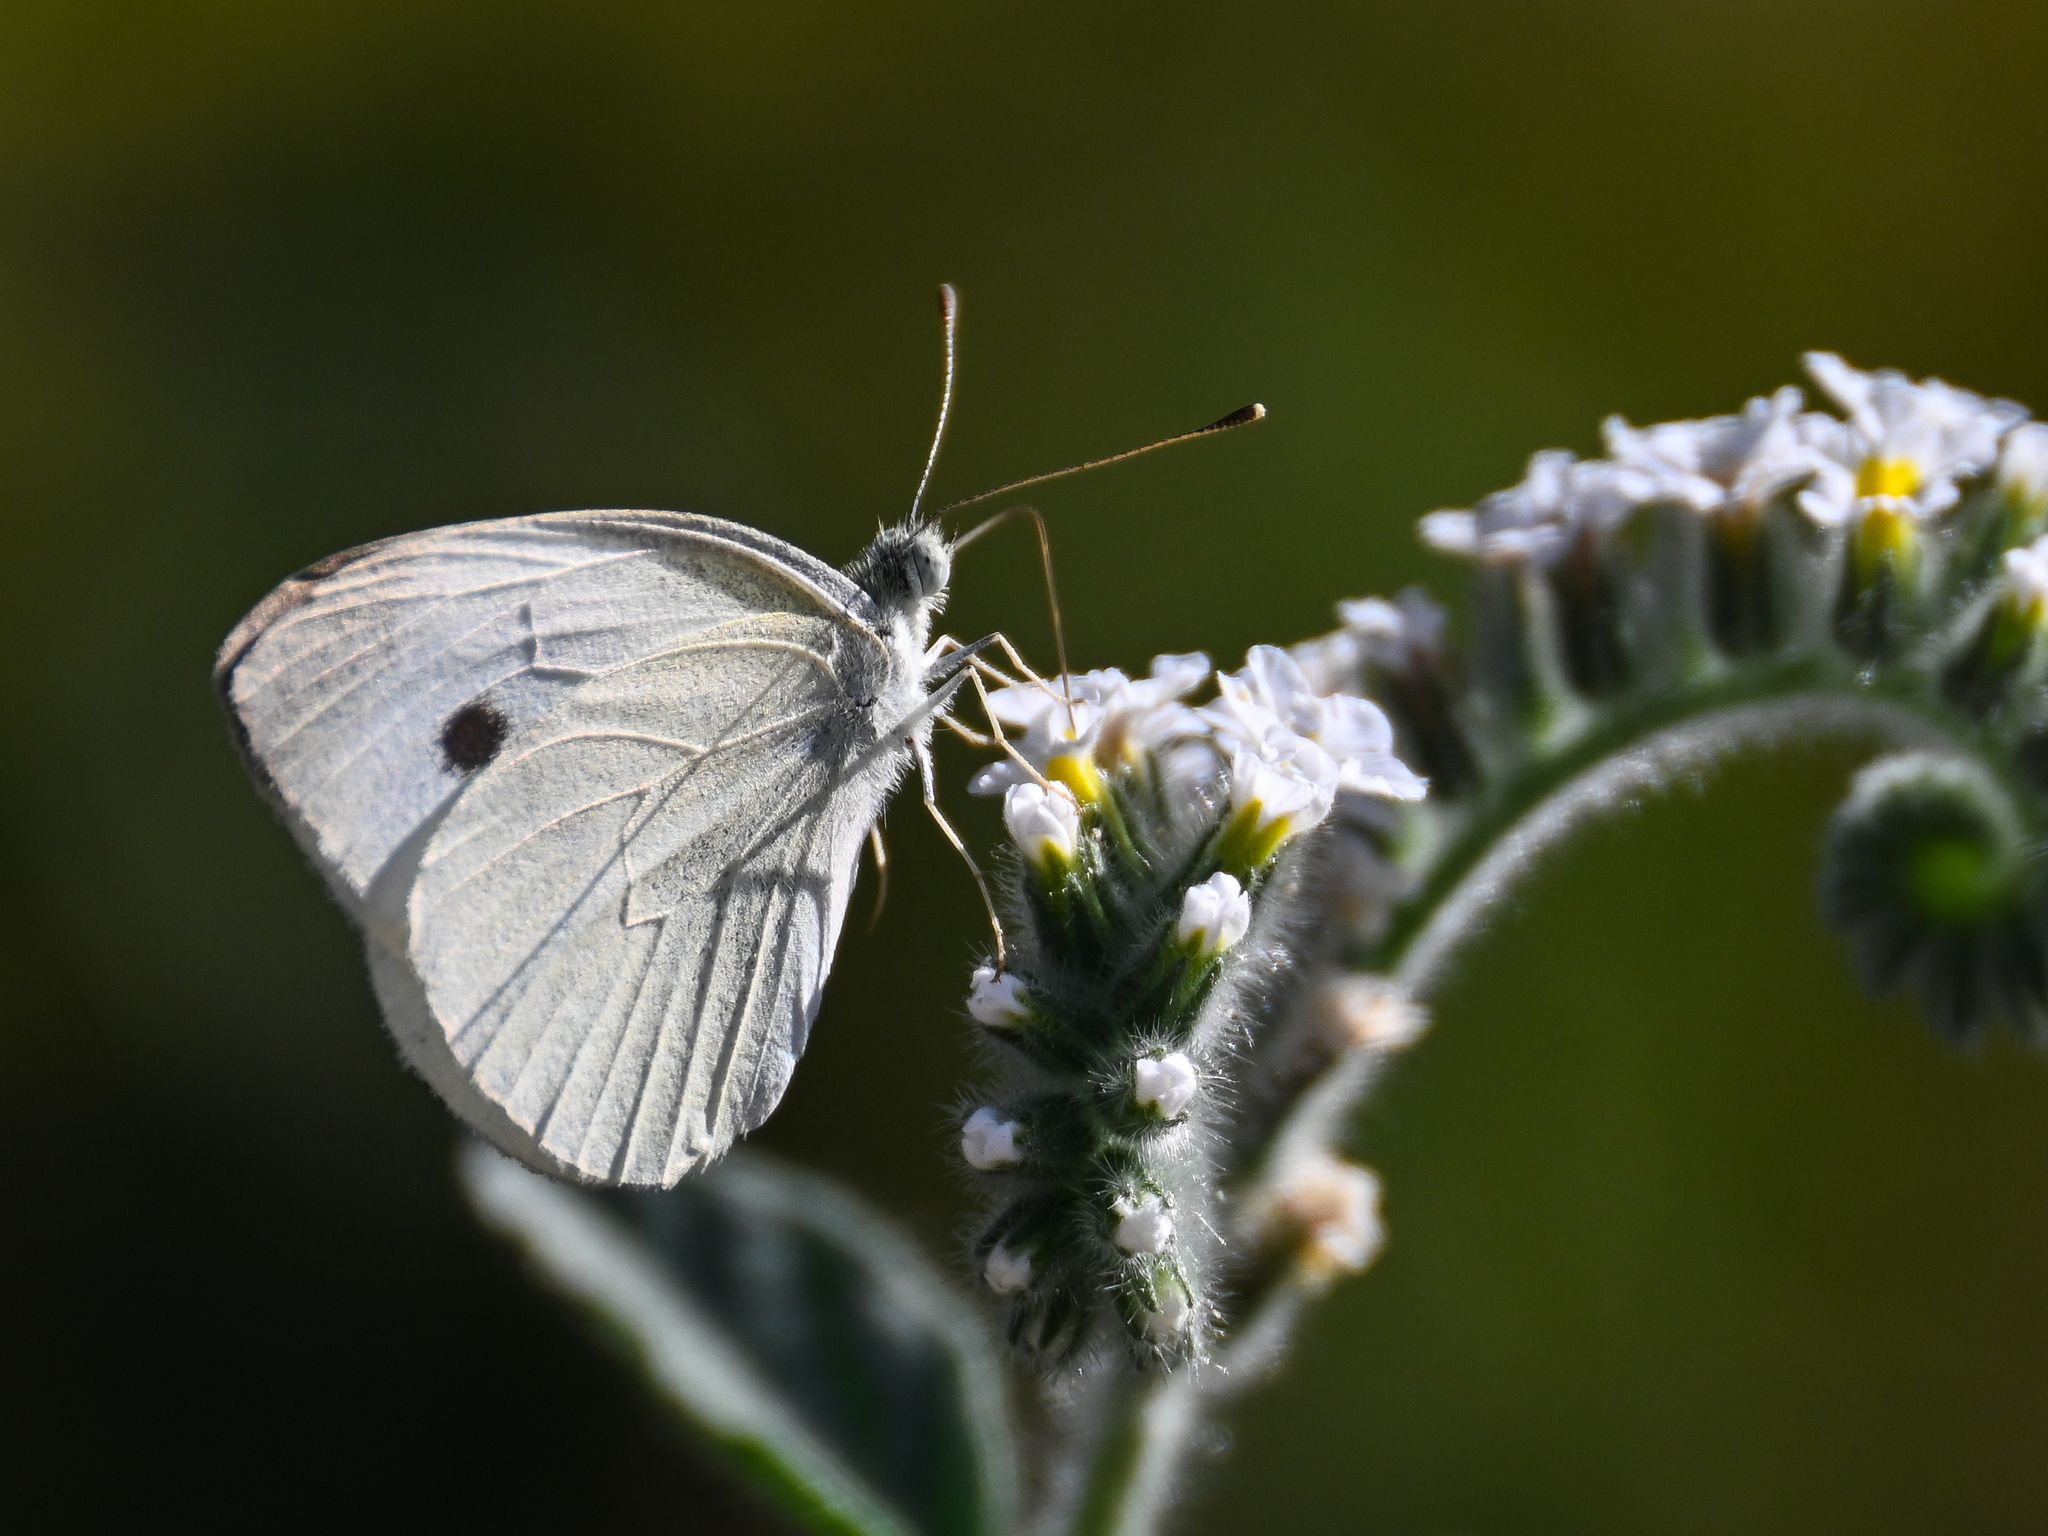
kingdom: Animalia
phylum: Arthropoda
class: Insecta
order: Lepidoptera
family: Pieridae
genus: Pieris
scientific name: Pieris rapae
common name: Small white
